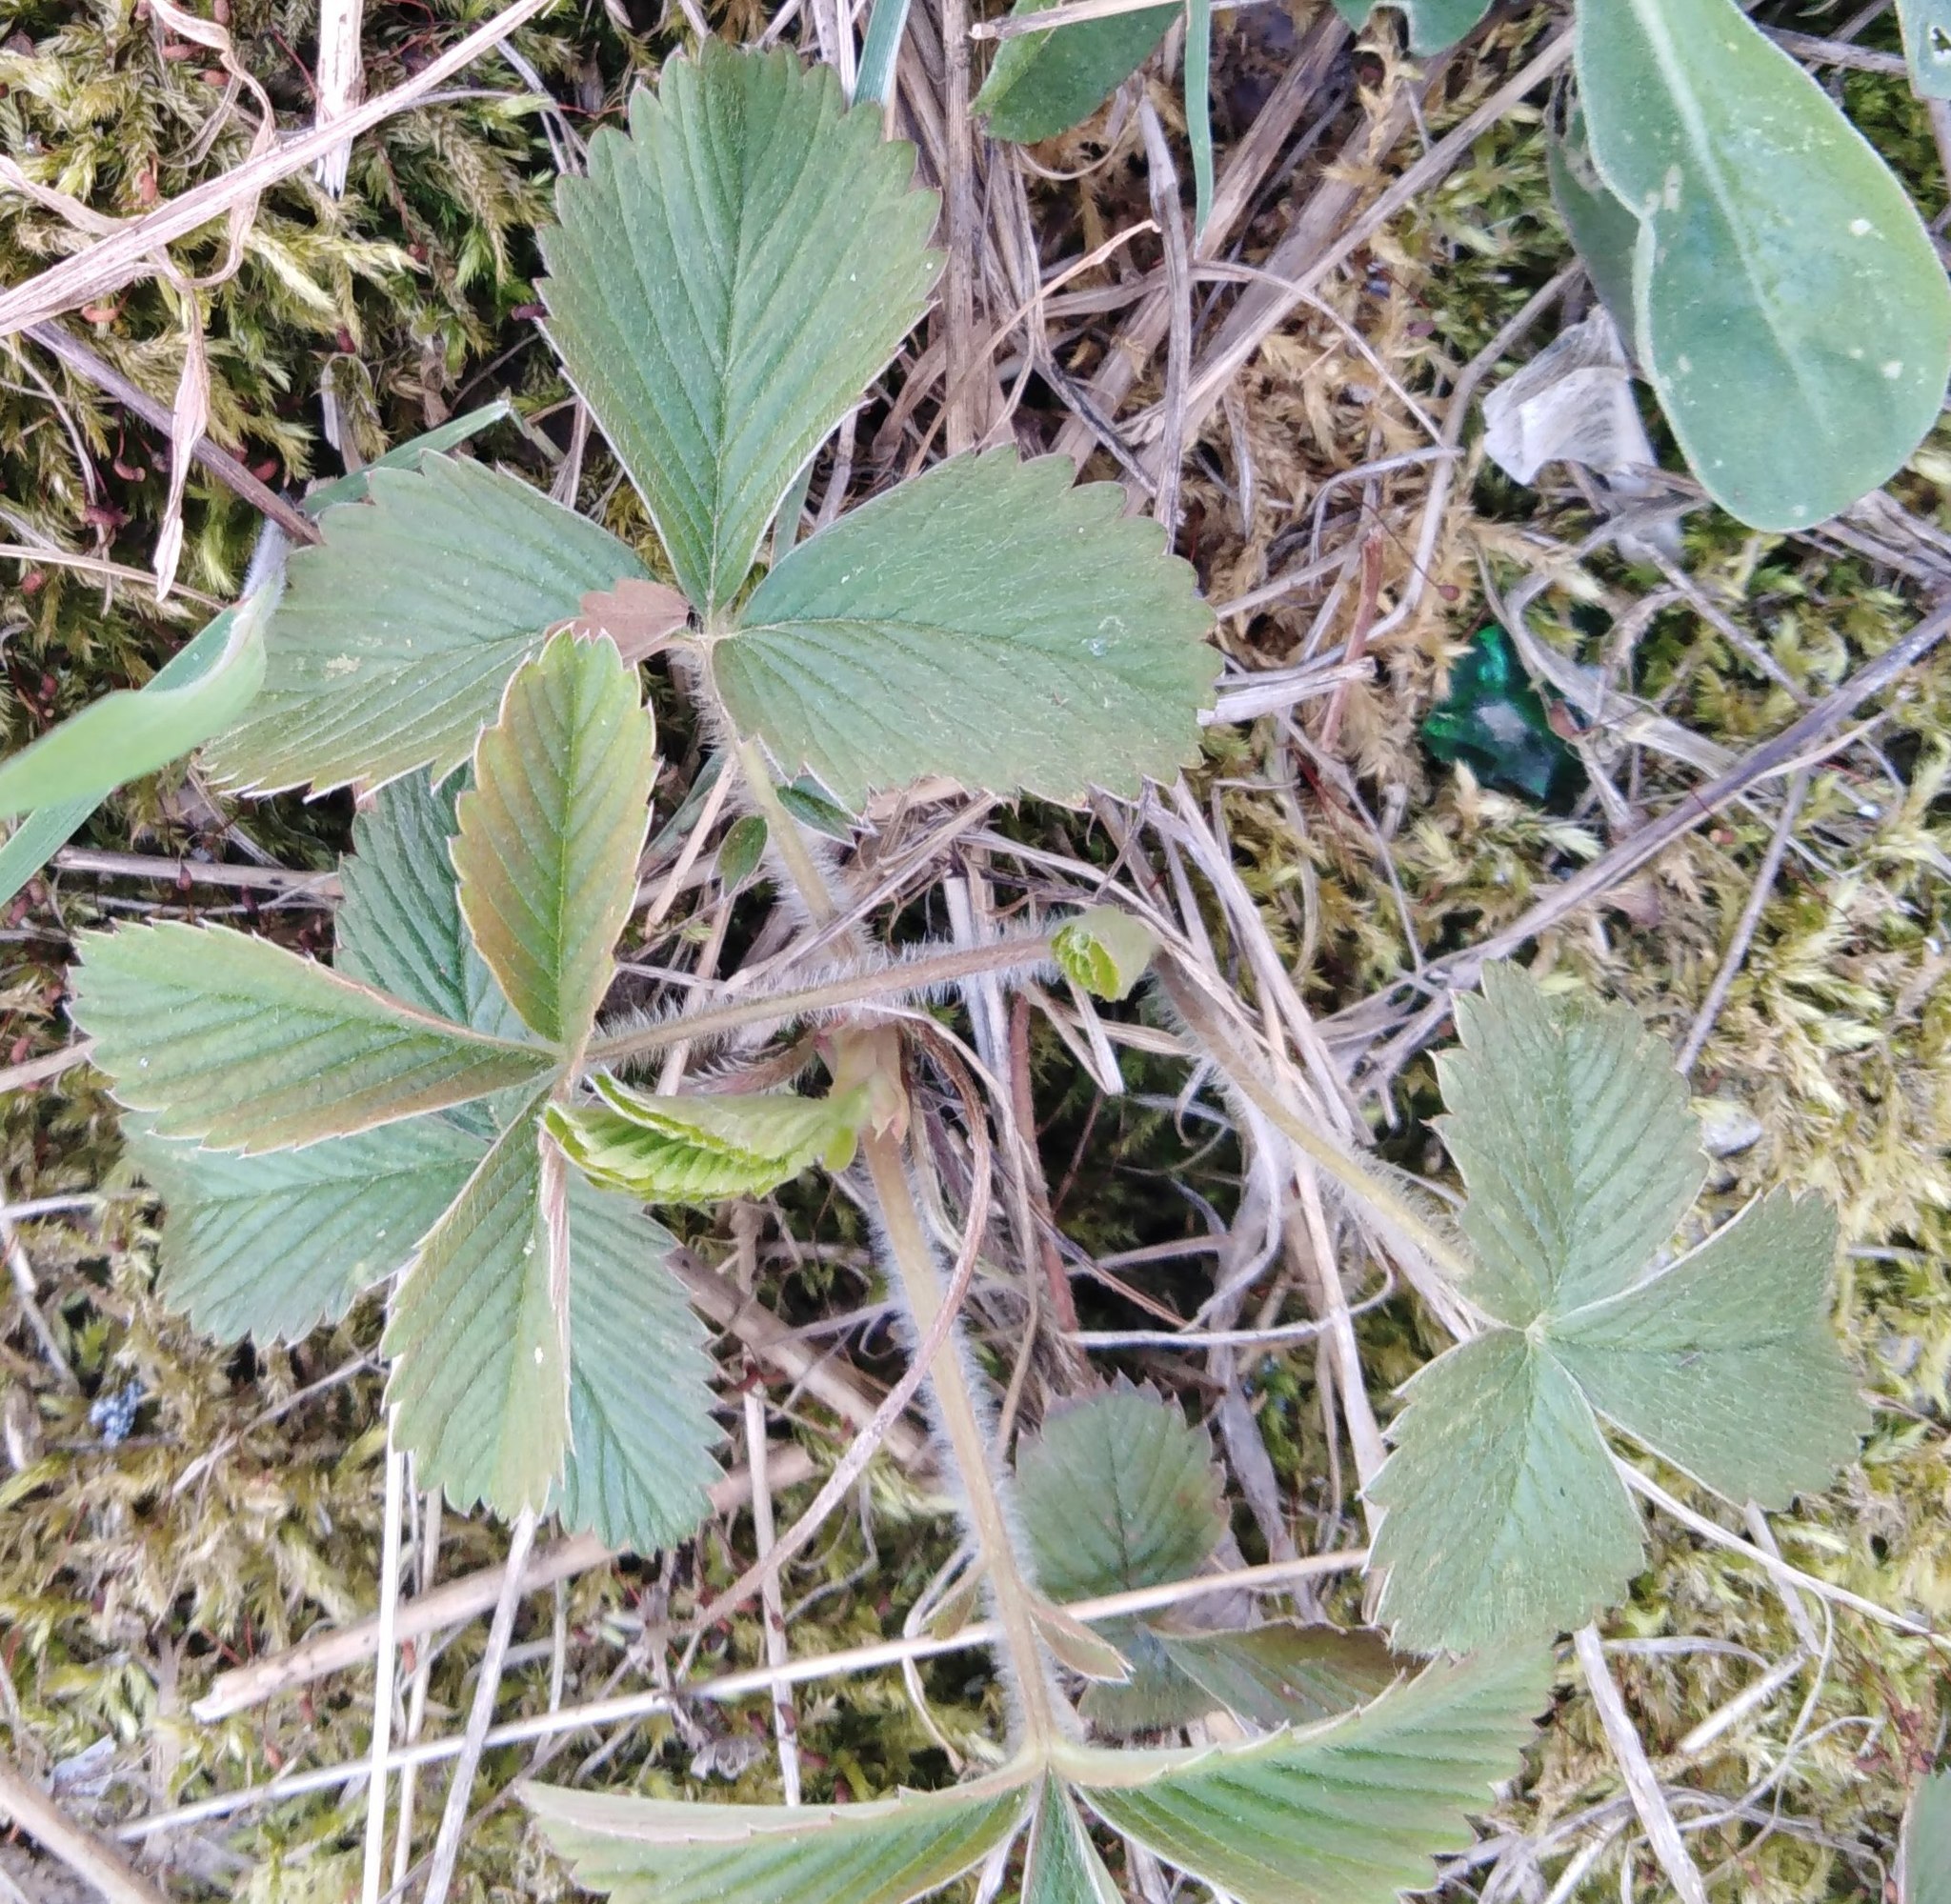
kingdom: Plantae
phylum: Tracheophyta
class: Magnoliopsida
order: Rosales
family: Rosaceae
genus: Fragaria
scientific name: Fragaria viridis
